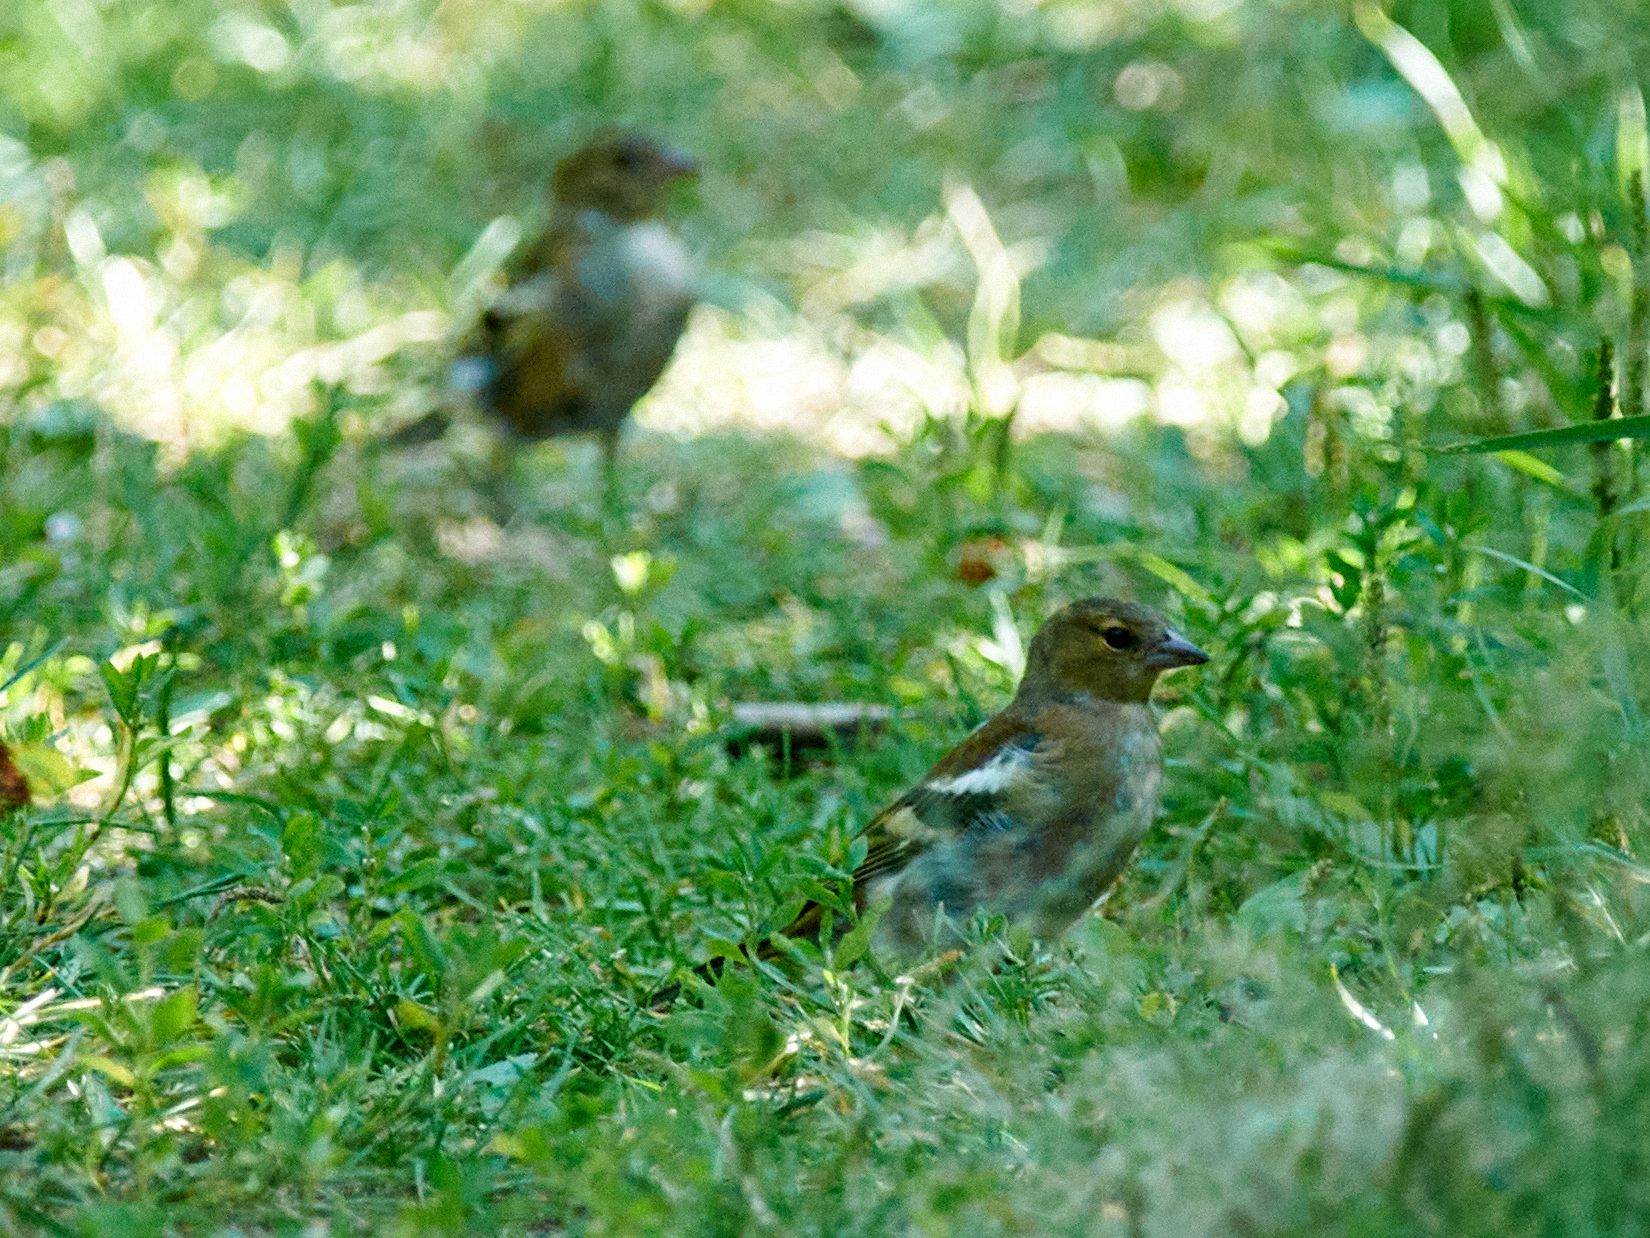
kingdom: Animalia
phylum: Chordata
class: Aves
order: Passeriformes
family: Fringillidae
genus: Fringilla
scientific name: Fringilla coelebs
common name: Common chaffinch
